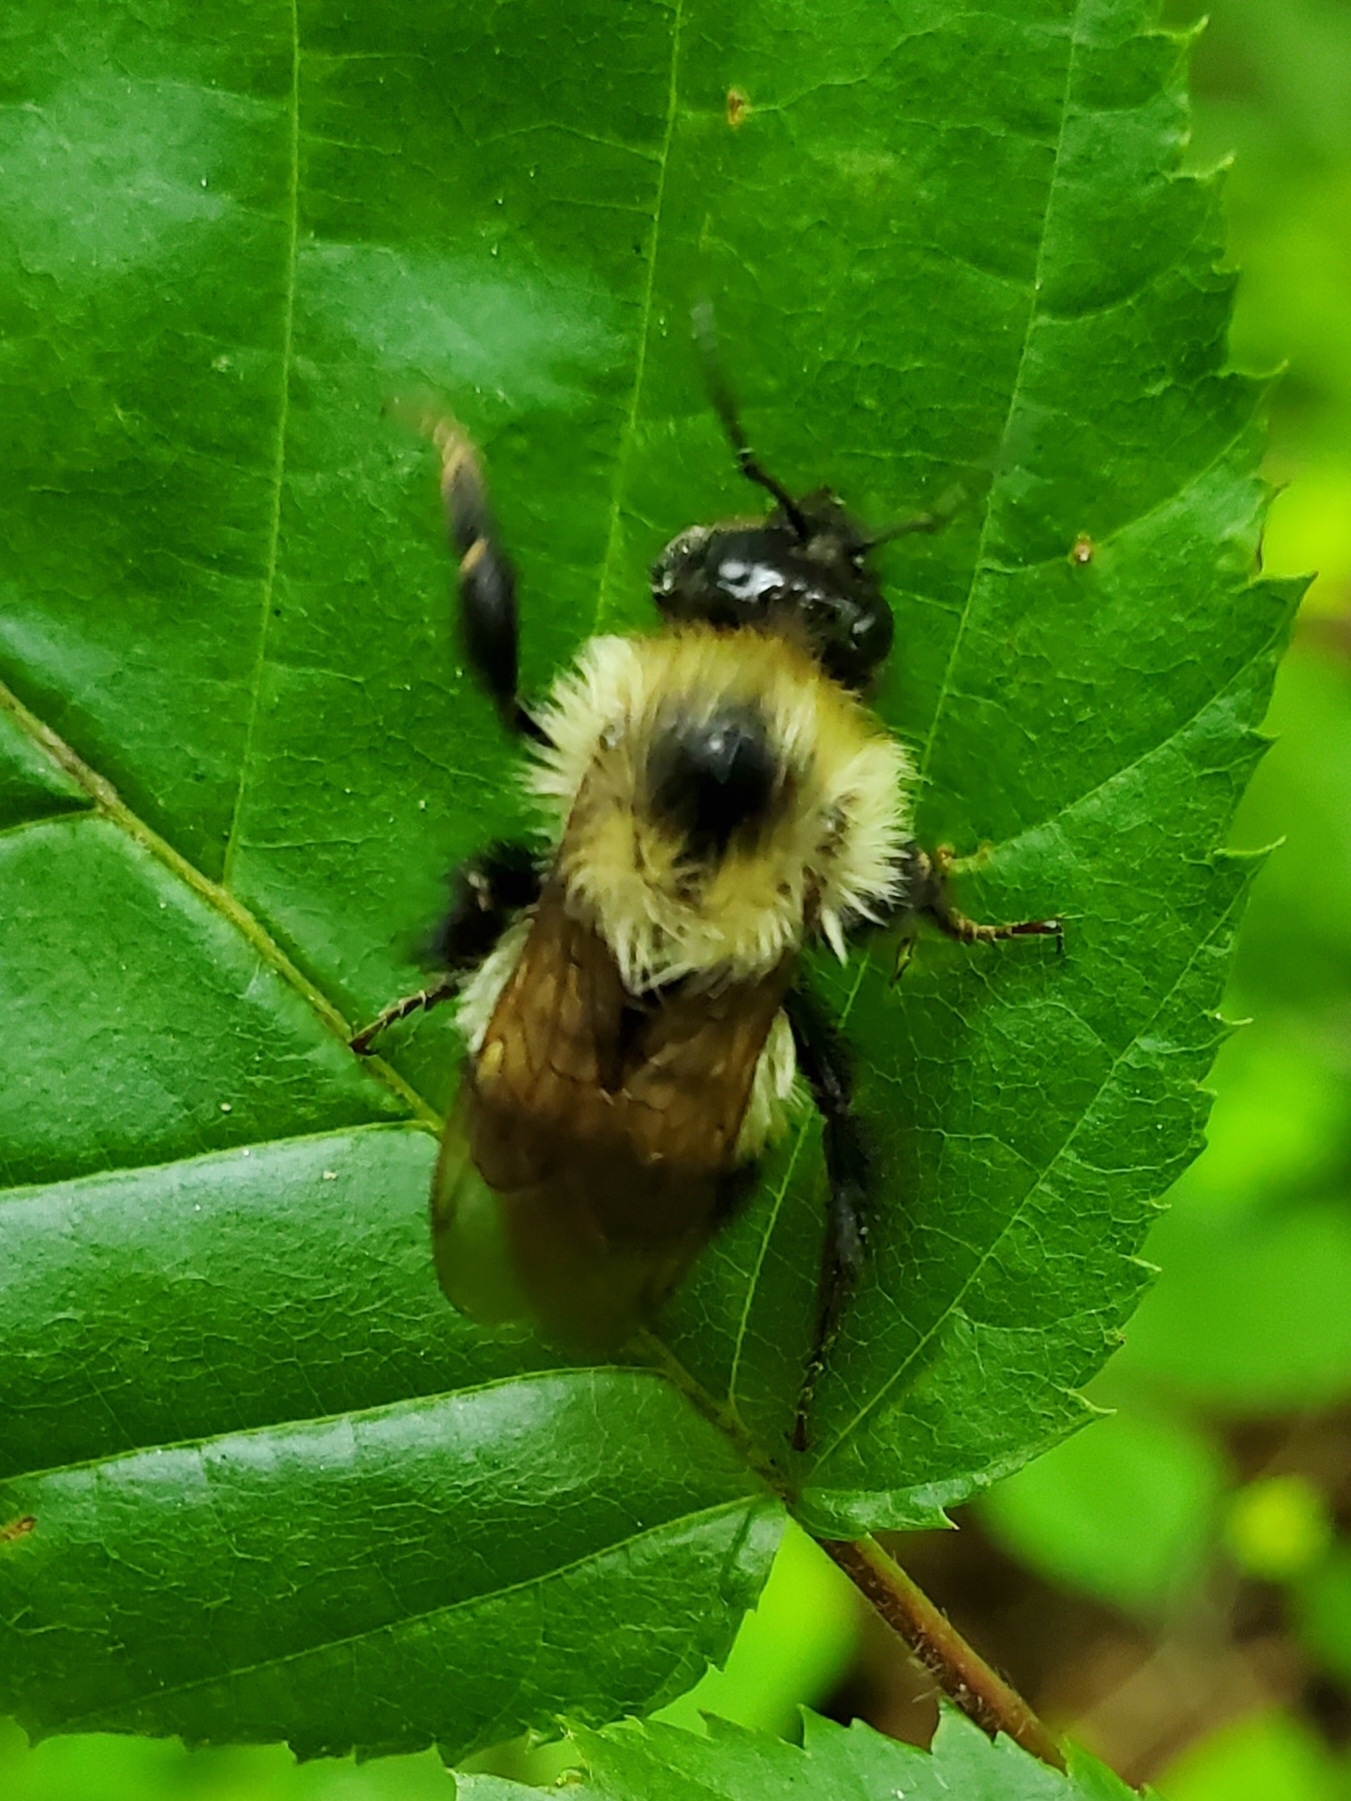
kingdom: Animalia
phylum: Arthropoda
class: Insecta
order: Hymenoptera
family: Apidae
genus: Pyrobombus
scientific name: Pyrobombus
